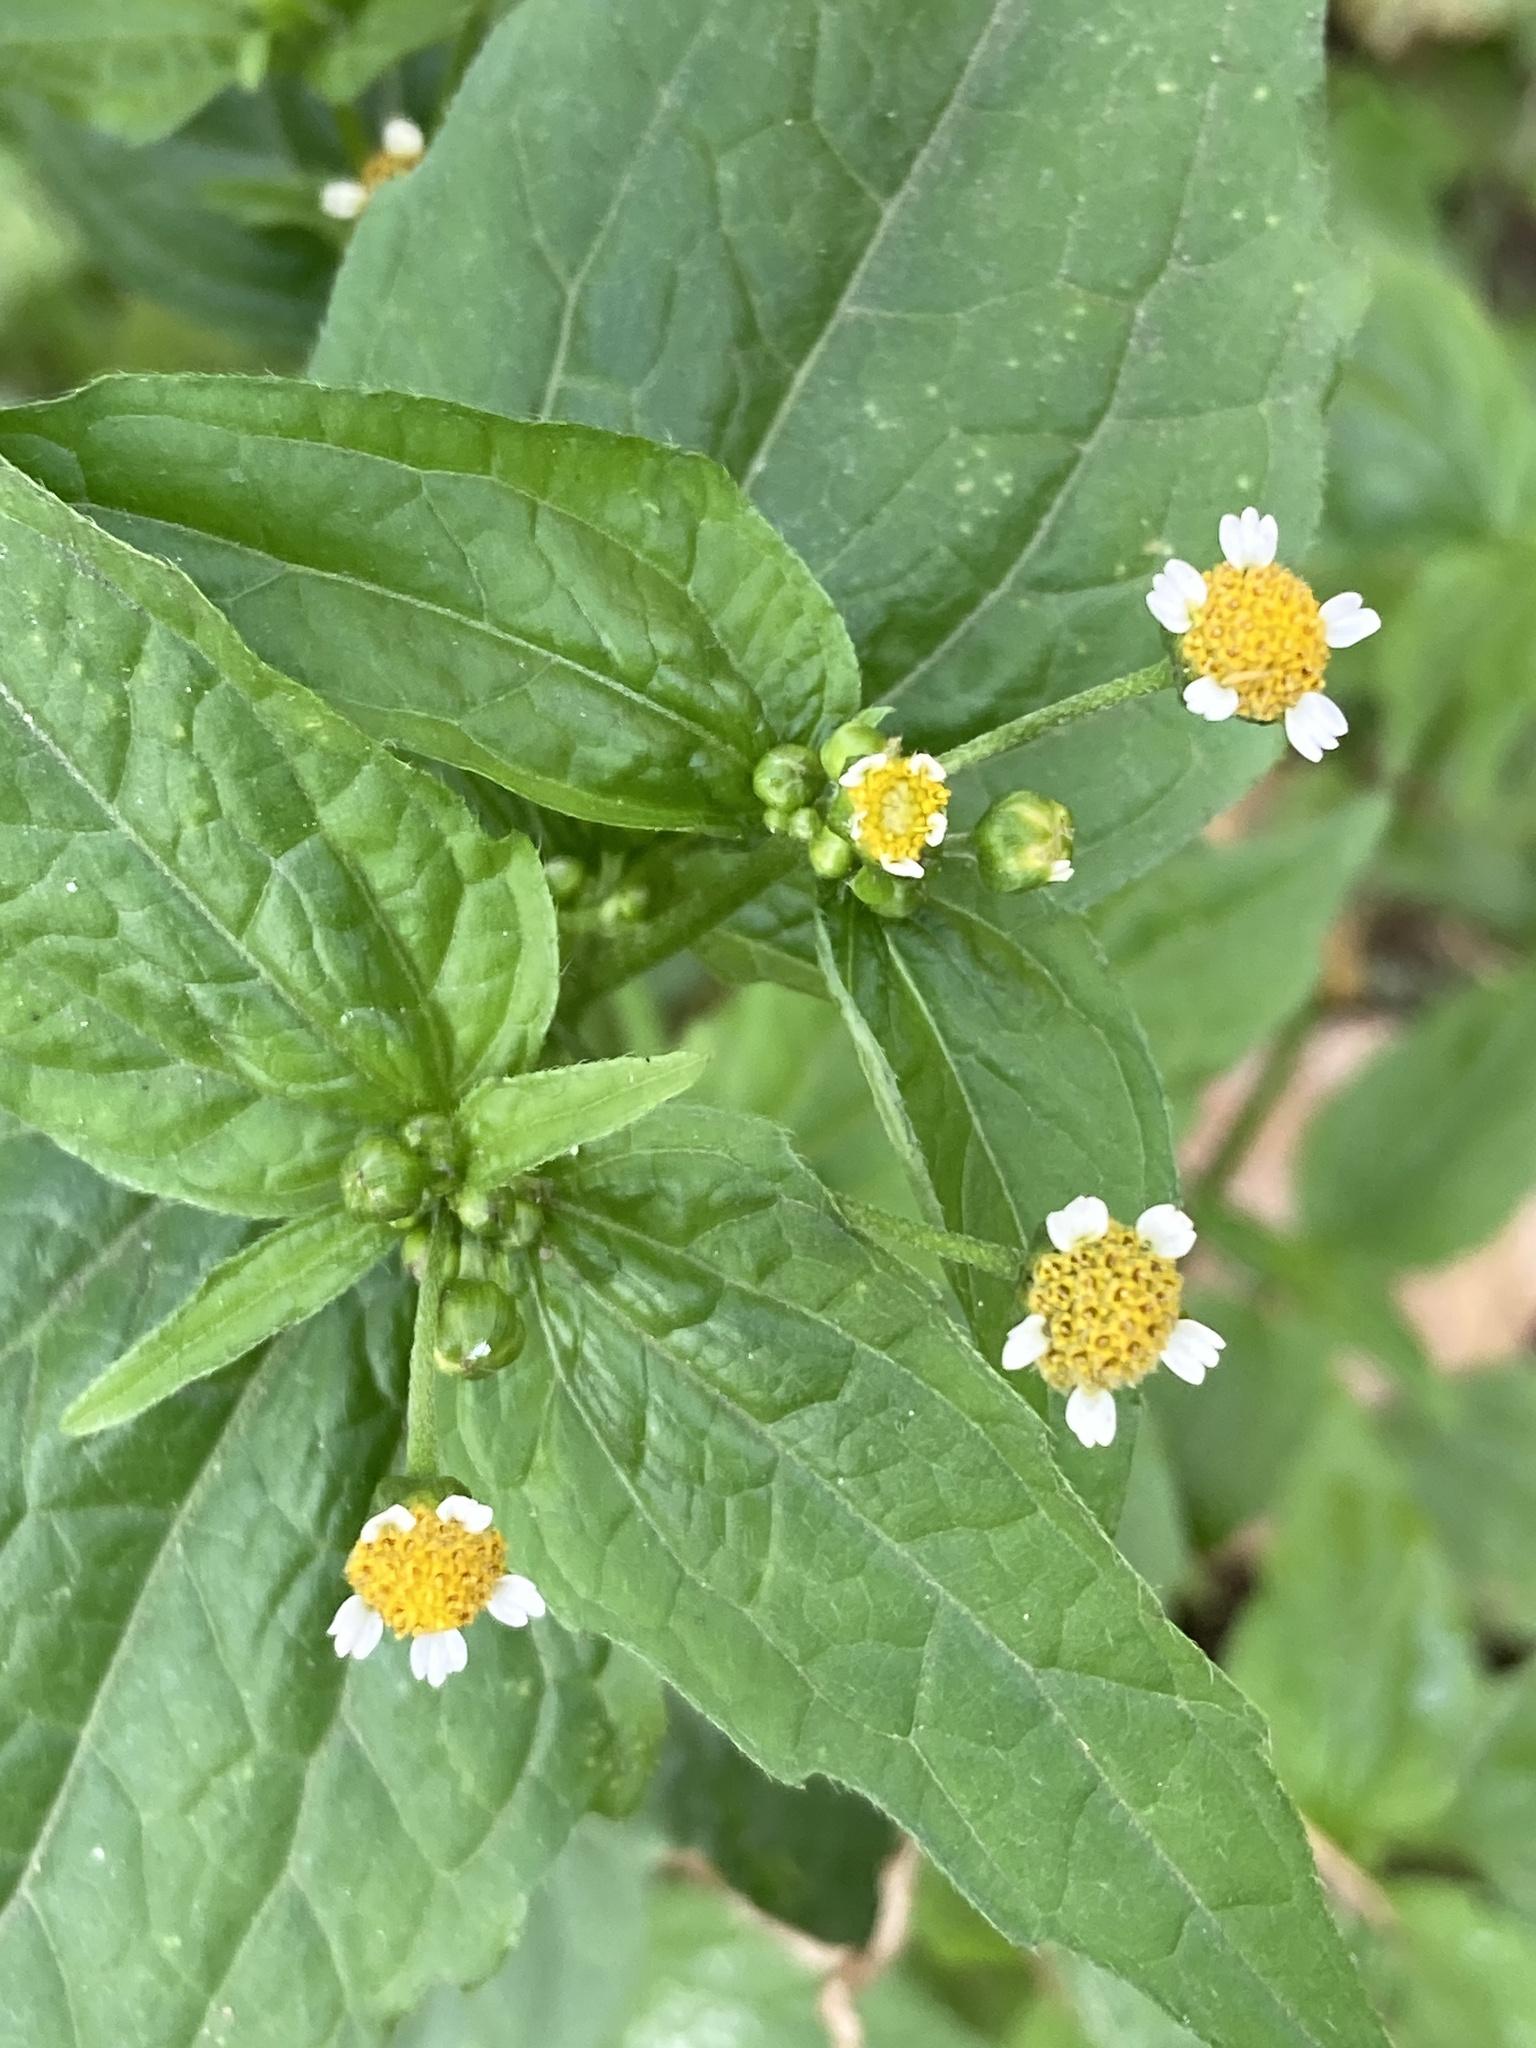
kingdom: Plantae
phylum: Tracheophyta
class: Magnoliopsida
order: Asterales
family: Asteraceae
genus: Galinsoga
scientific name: Galinsoga parviflora
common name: Gallant soldier
